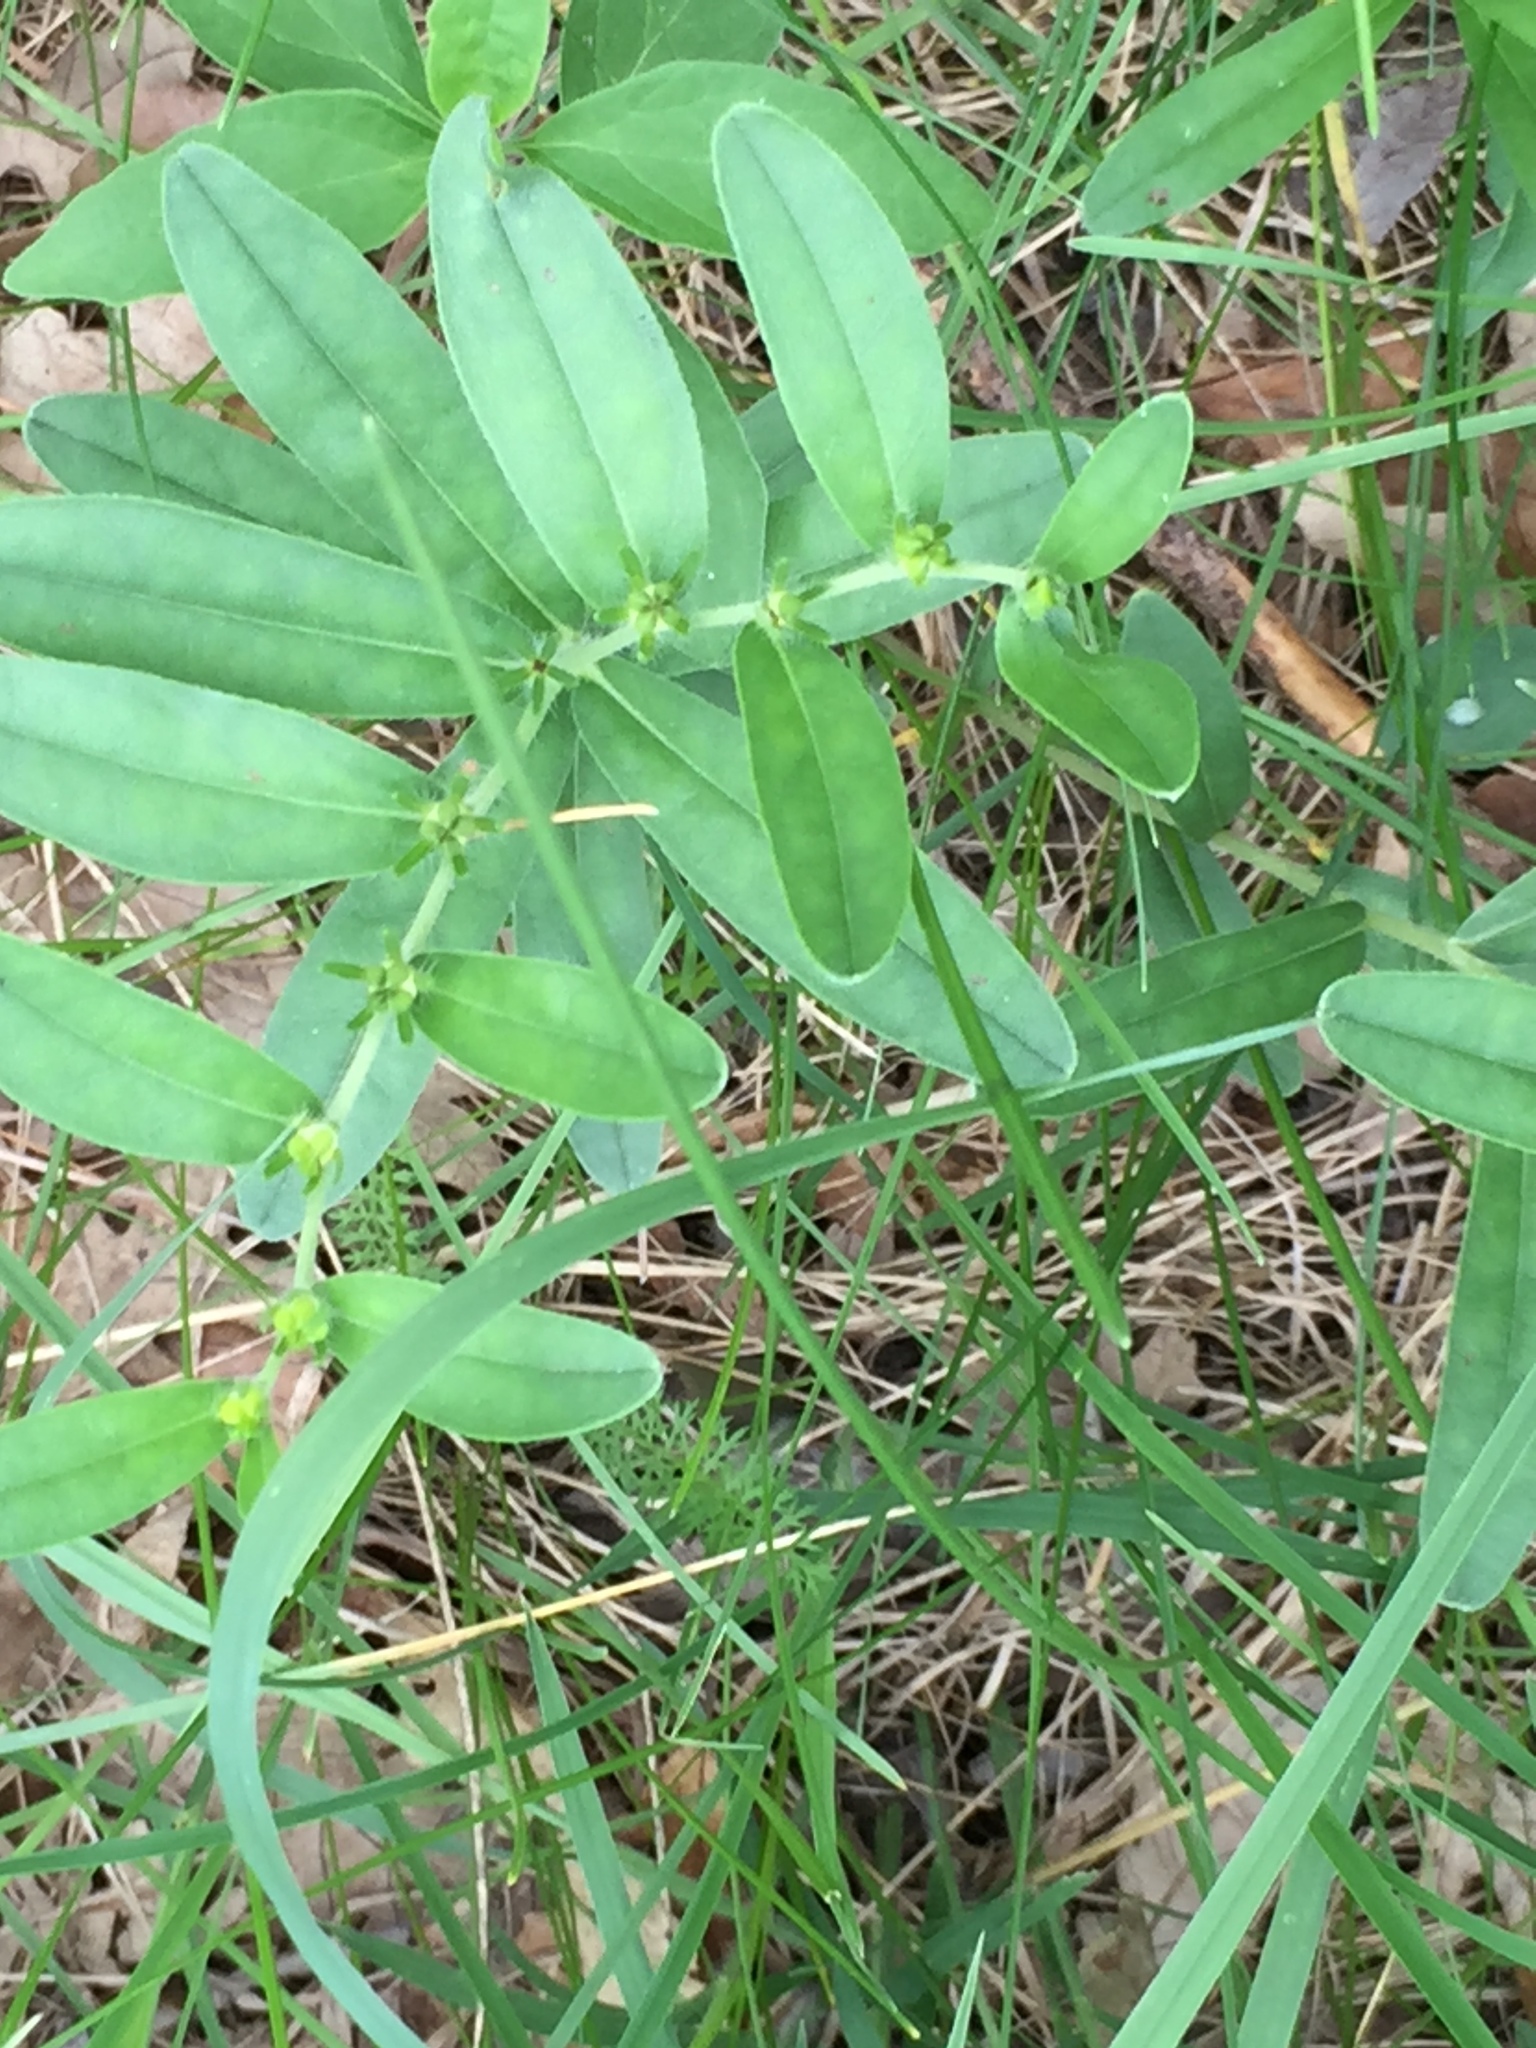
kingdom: Plantae
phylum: Tracheophyta
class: Magnoliopsida
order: Boraginales
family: Boraginaceae
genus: Lithospermum
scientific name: Lithospermum canescens
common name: Hoary puccoon
